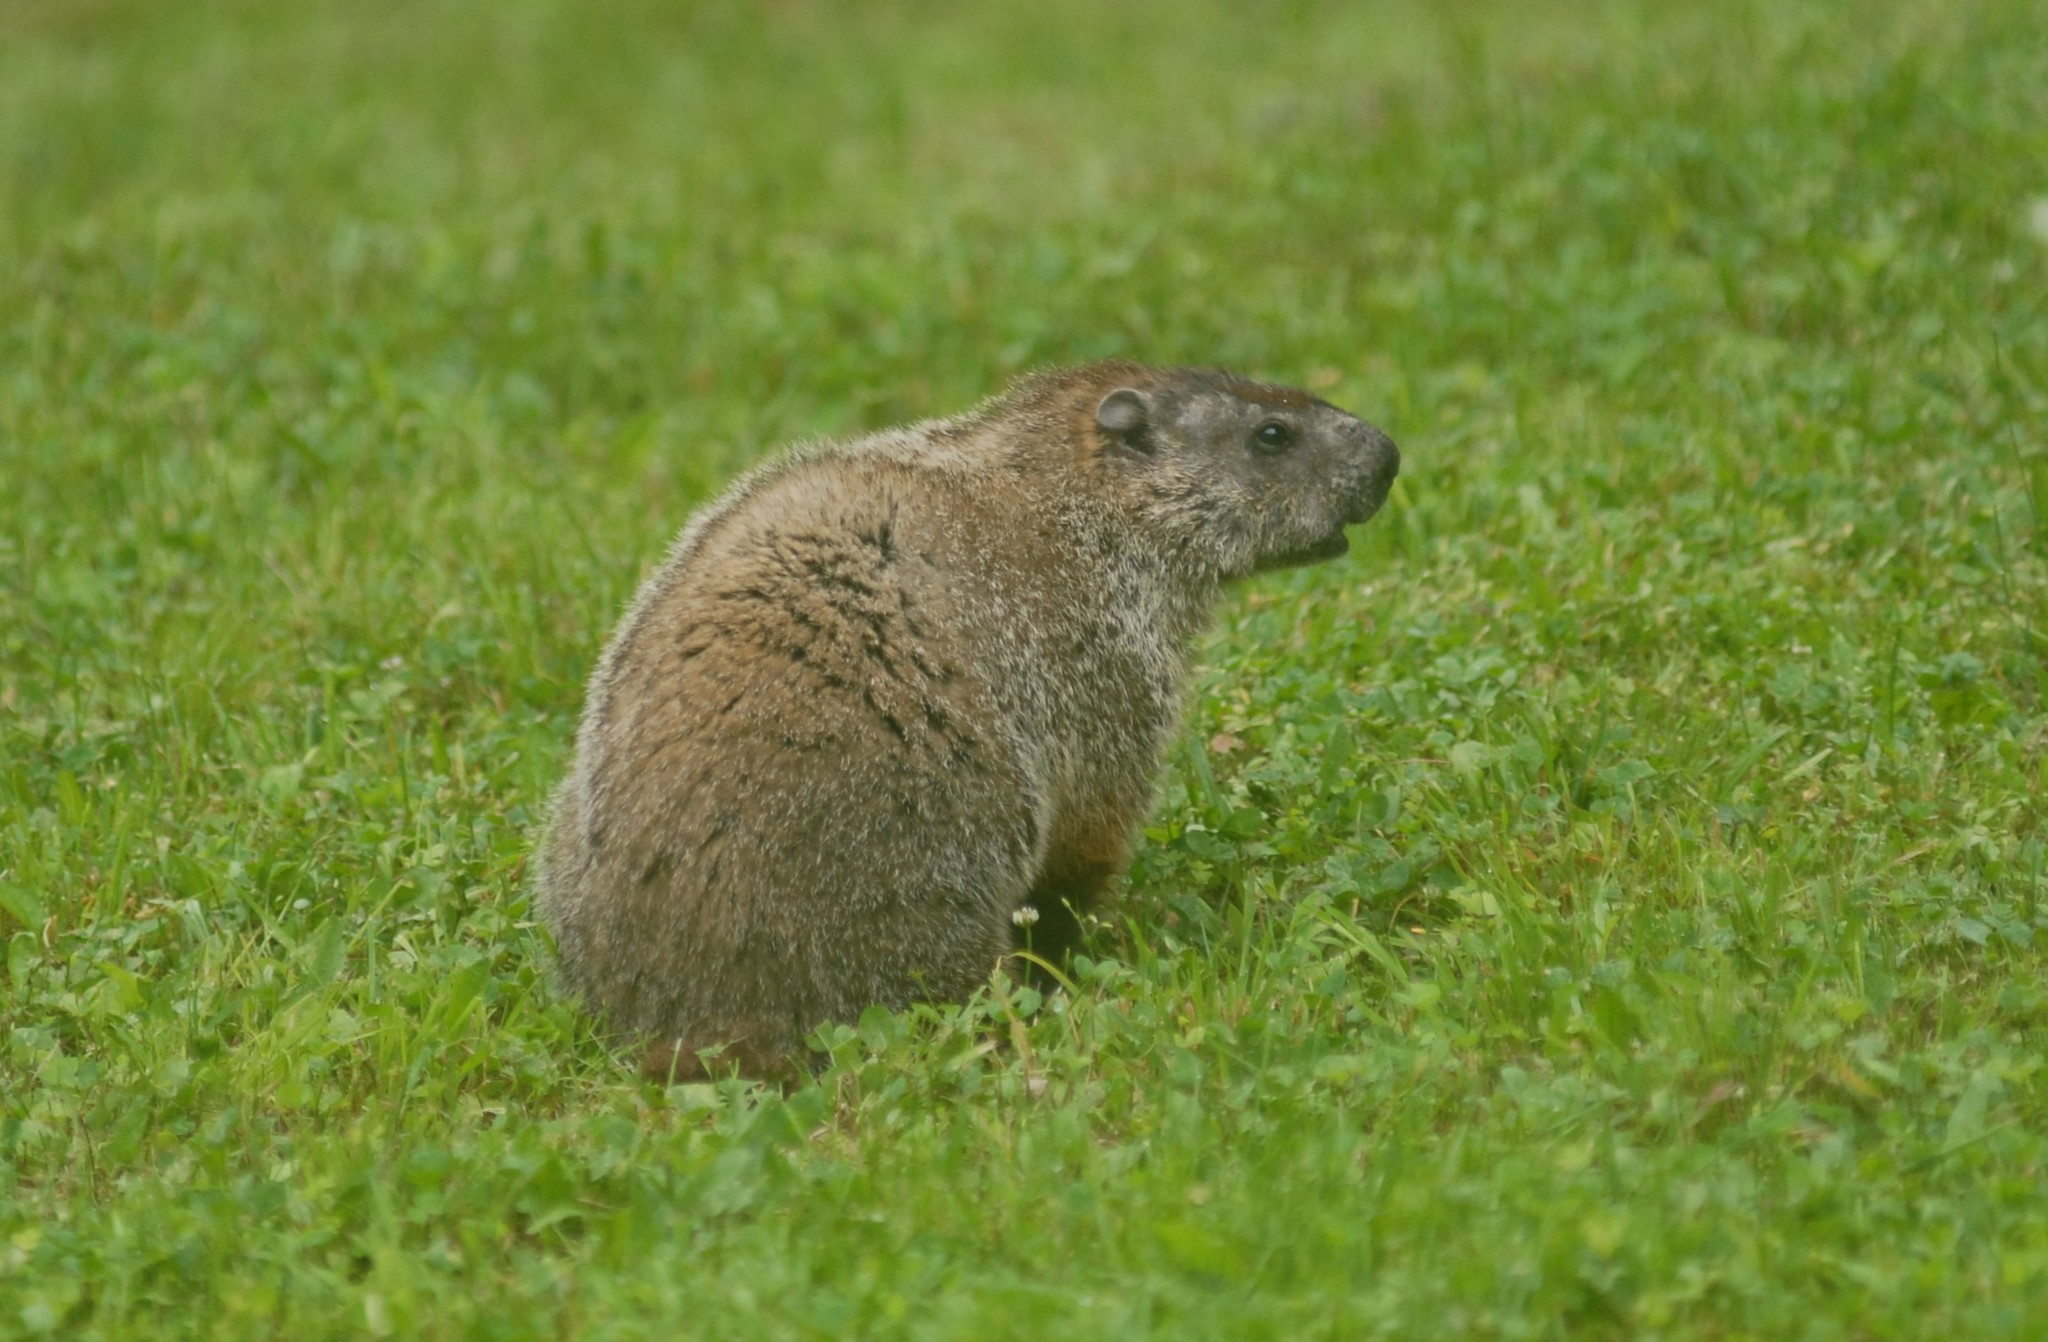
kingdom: Animalia
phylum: Chordata
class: Mammalia
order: Rodentia
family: Sciuridae
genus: Marmota
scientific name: Marmota monax
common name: Groundhog
